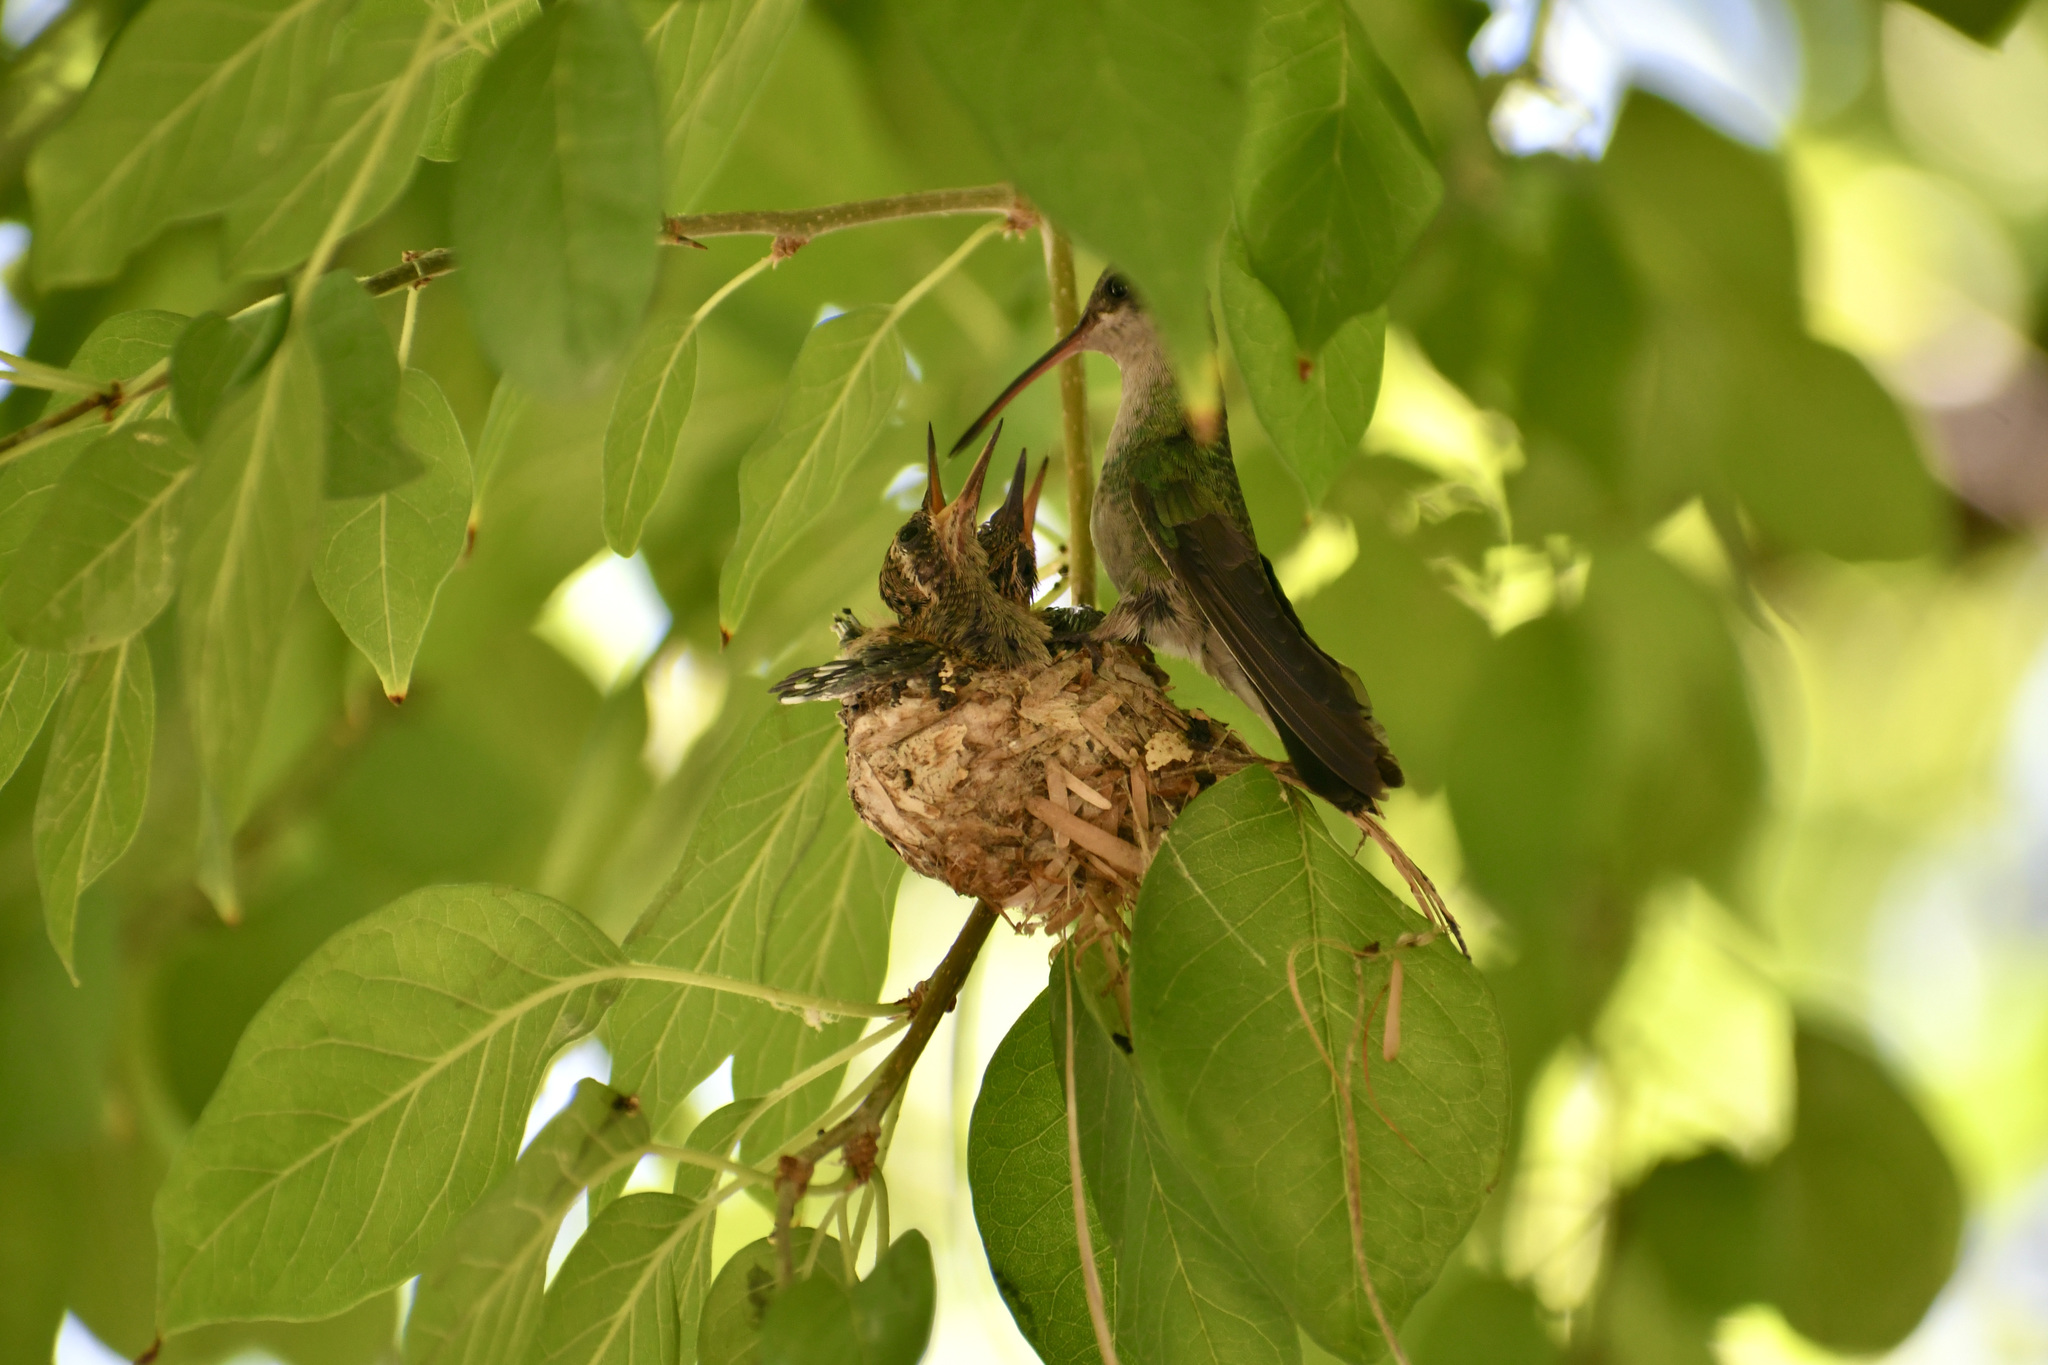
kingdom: Animalia
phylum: Chordata
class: Aves
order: Apodiformes
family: Trochilidae
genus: Cynanthus
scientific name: Cynanthus latirostris
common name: Broad-billed hummingbird
